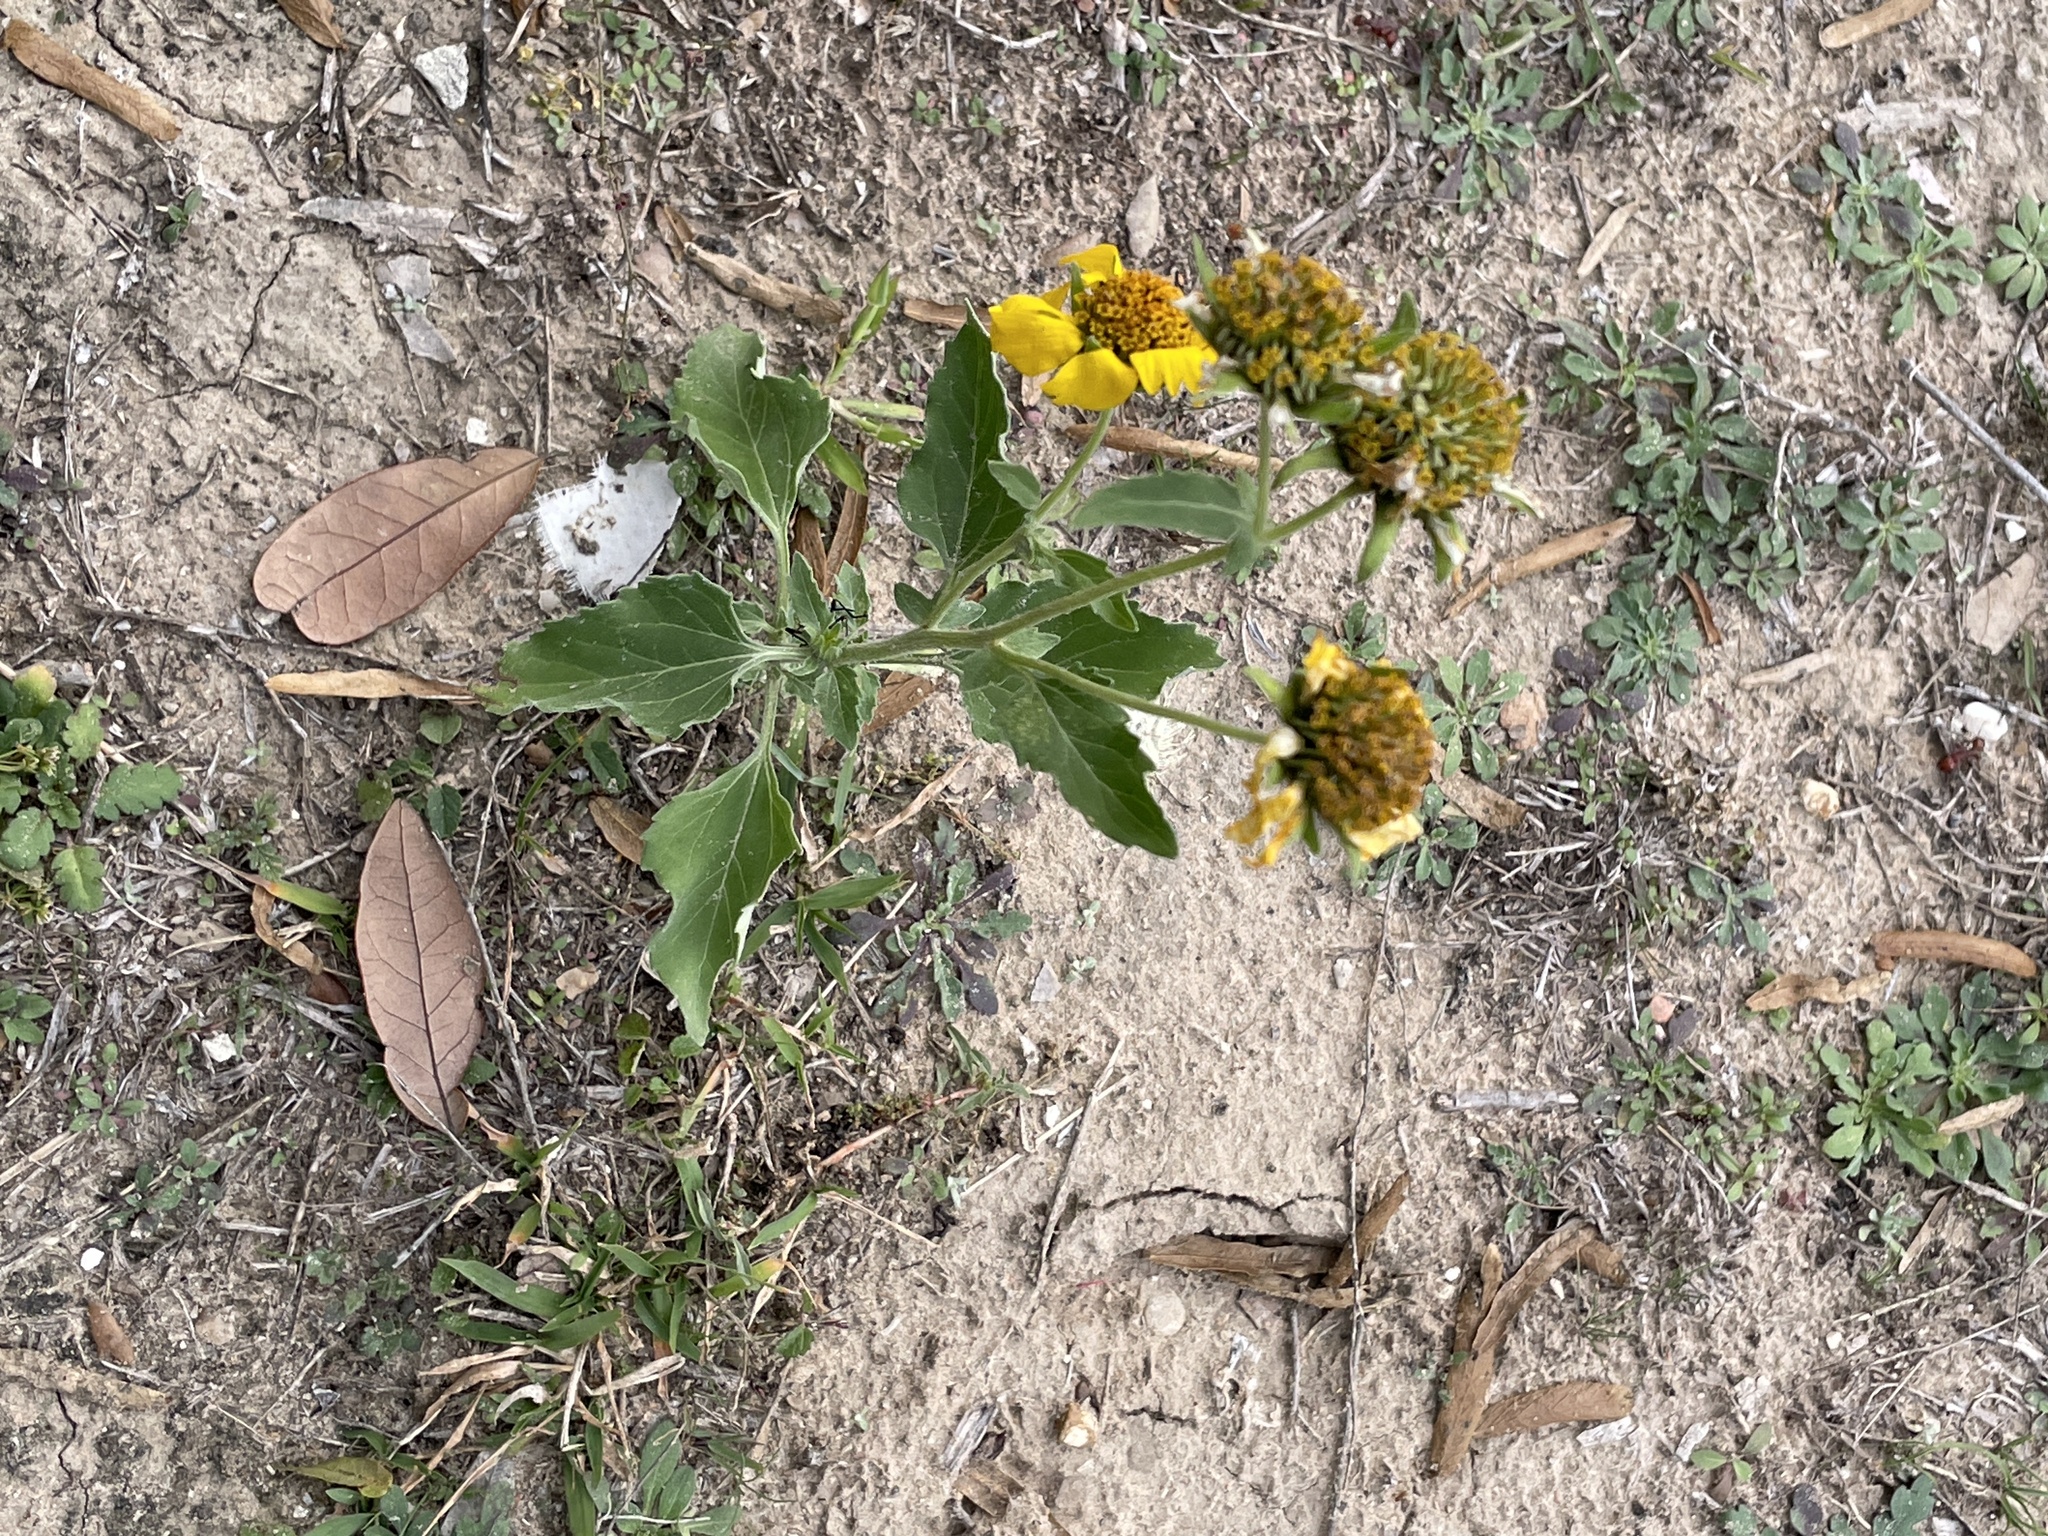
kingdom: Plantae
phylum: Tracheophyta
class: Magnoliopsida
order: Asterales
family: Asteraceae
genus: Verbesina
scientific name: Verbesina encelioides
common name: Golden crownbeard
